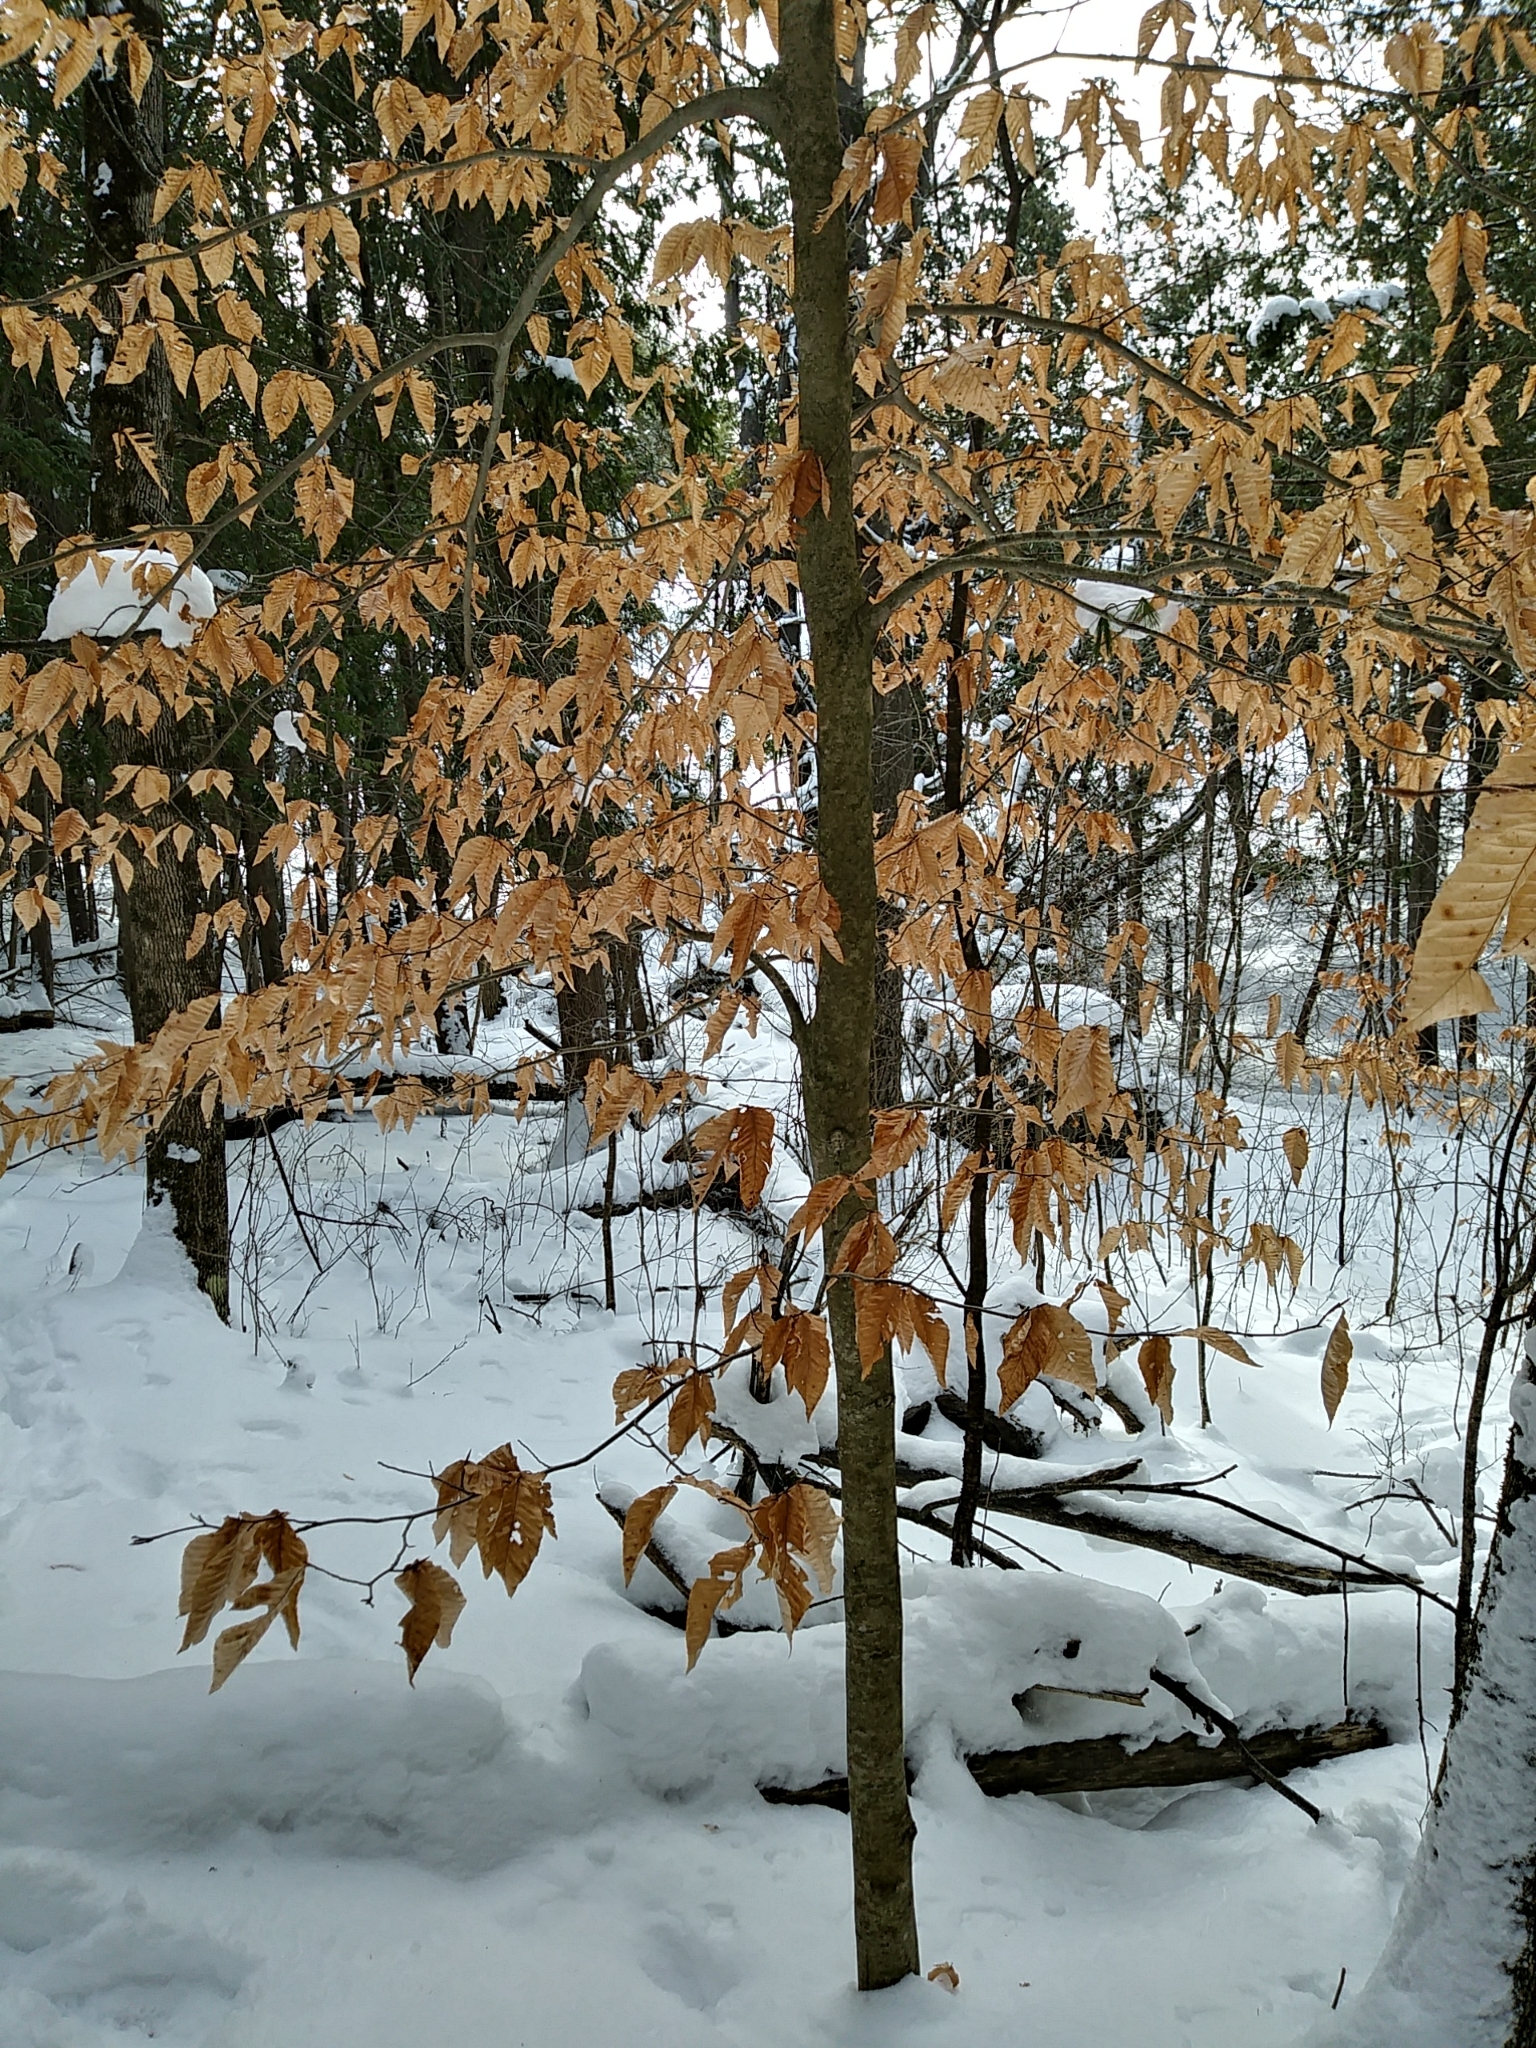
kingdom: Plantae
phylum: Tracheophyta
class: Magnoliopsida
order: Fagales
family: Fagaceae
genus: Fagus
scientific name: Fagus grandifolia
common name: American beech
